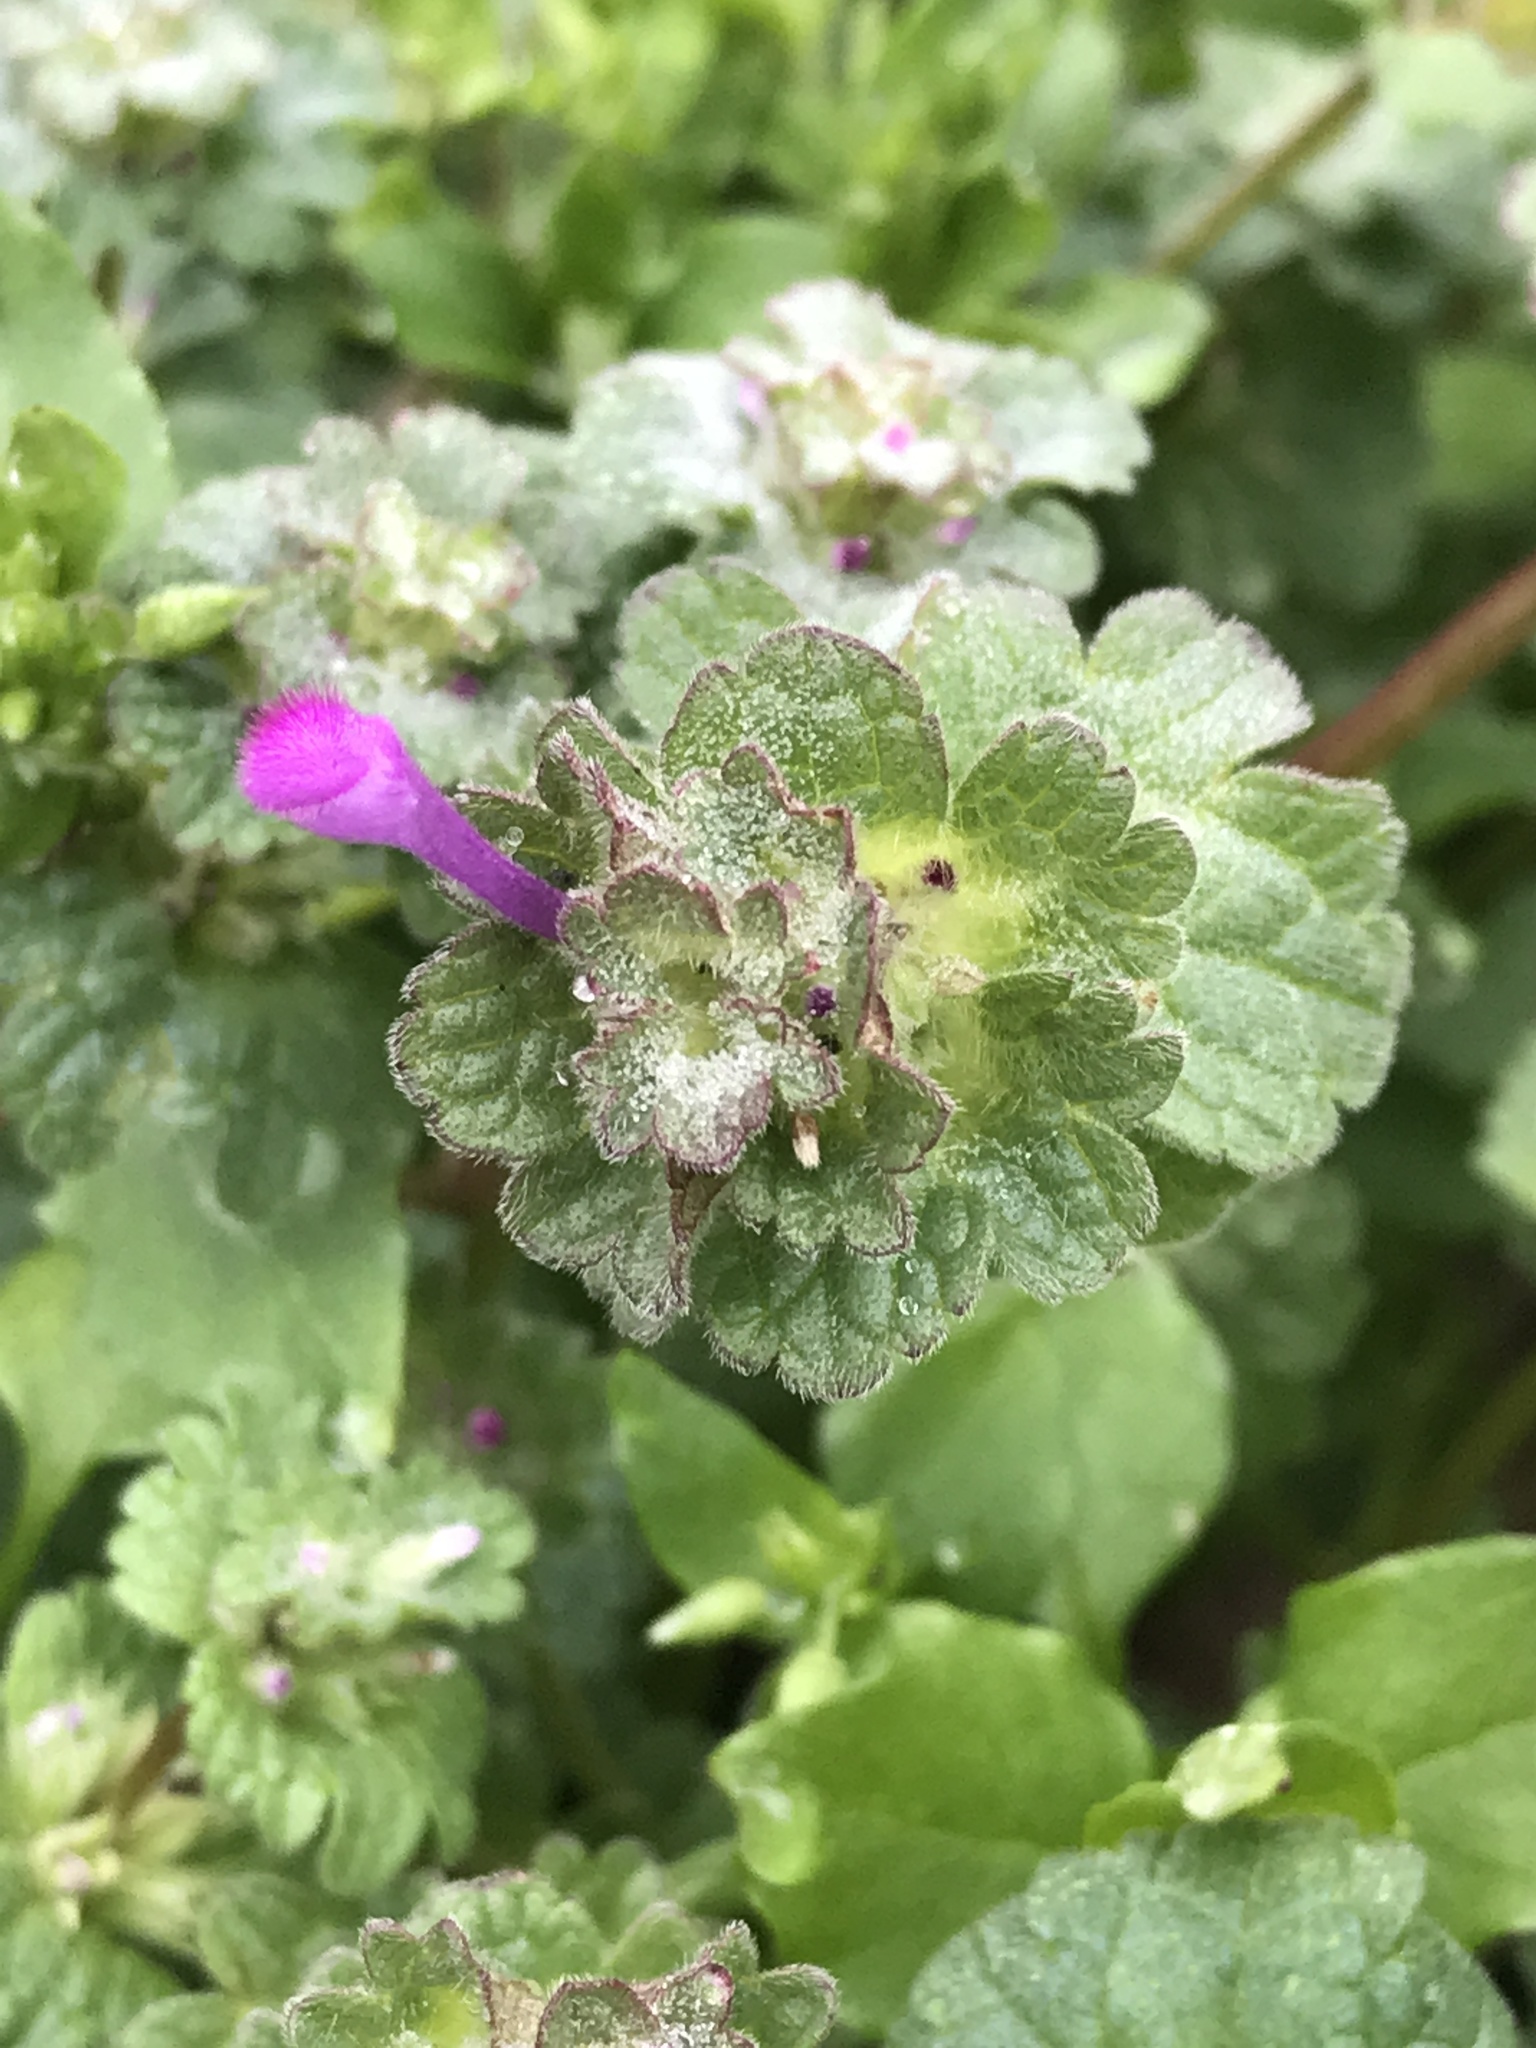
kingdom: Plantae
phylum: Tracheophyta
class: Magnoliopsida
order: Lamiales
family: Lamiaceae
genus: Lamium
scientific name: Lamium amplexicaule
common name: Henbit dead-nettle
